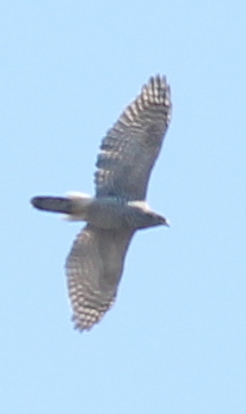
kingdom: Animalia
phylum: Chordata
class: Aves
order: Accipitriformes
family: Accipitridae
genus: Accipiter
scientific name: Accipiter gentilis
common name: Northern goshawk
